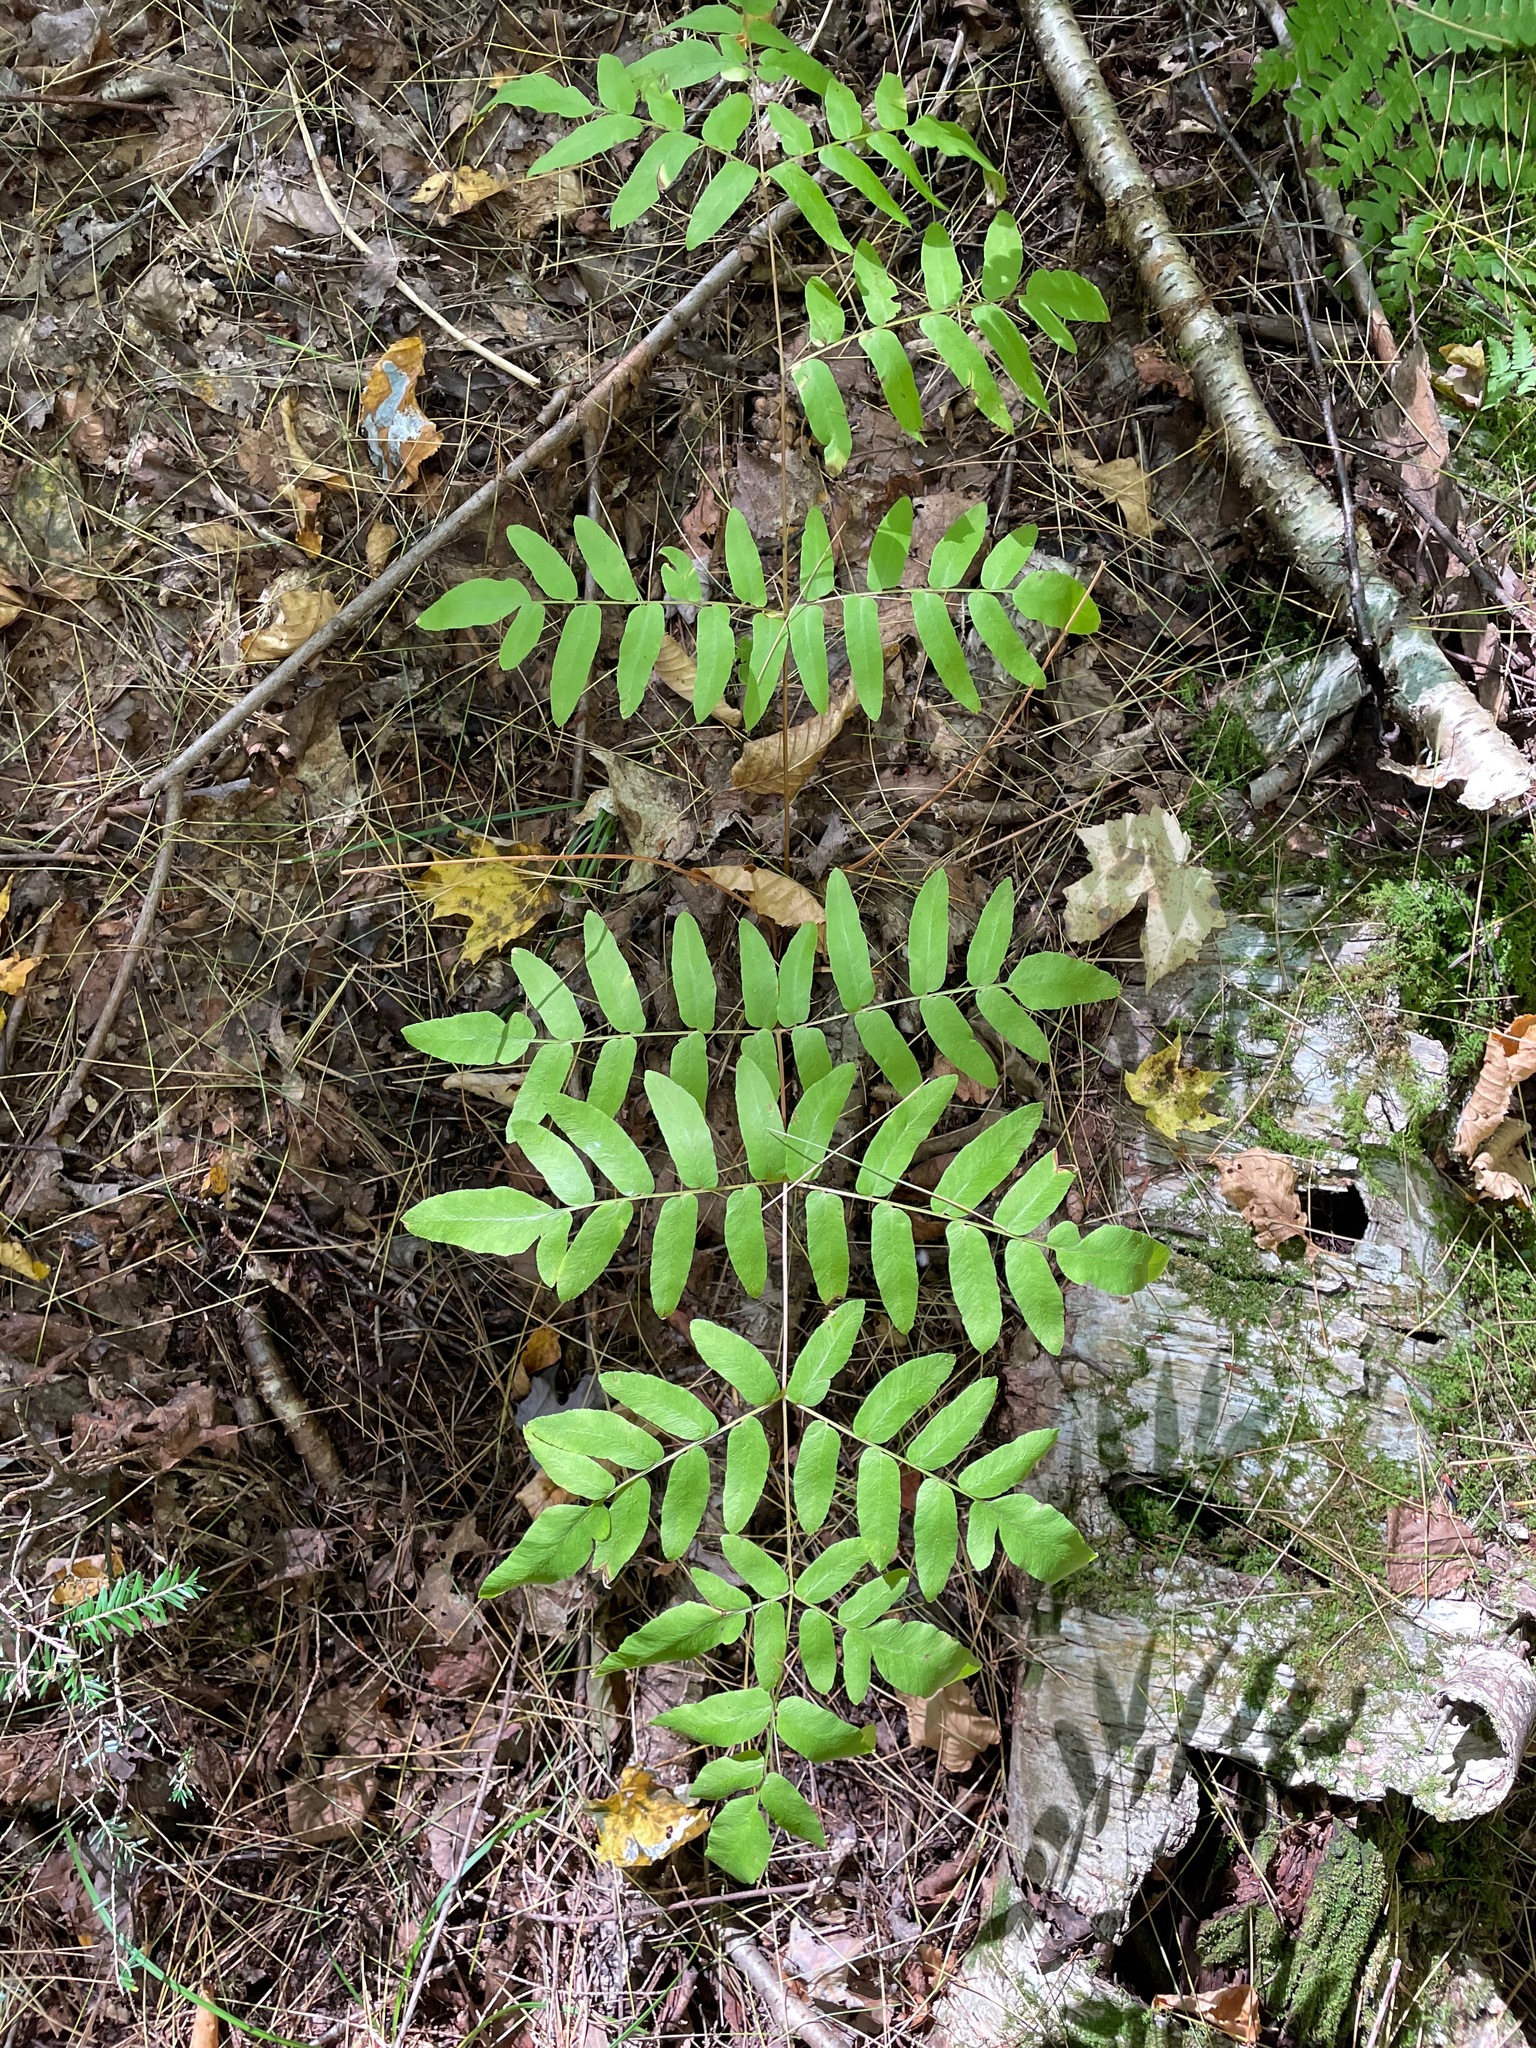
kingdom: Plantae
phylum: Tracheophyta
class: Polypodiopsida
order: Osmundales
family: Osmundaceae
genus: Osmunda
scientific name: Osmunda spectabilis
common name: American royal fern
